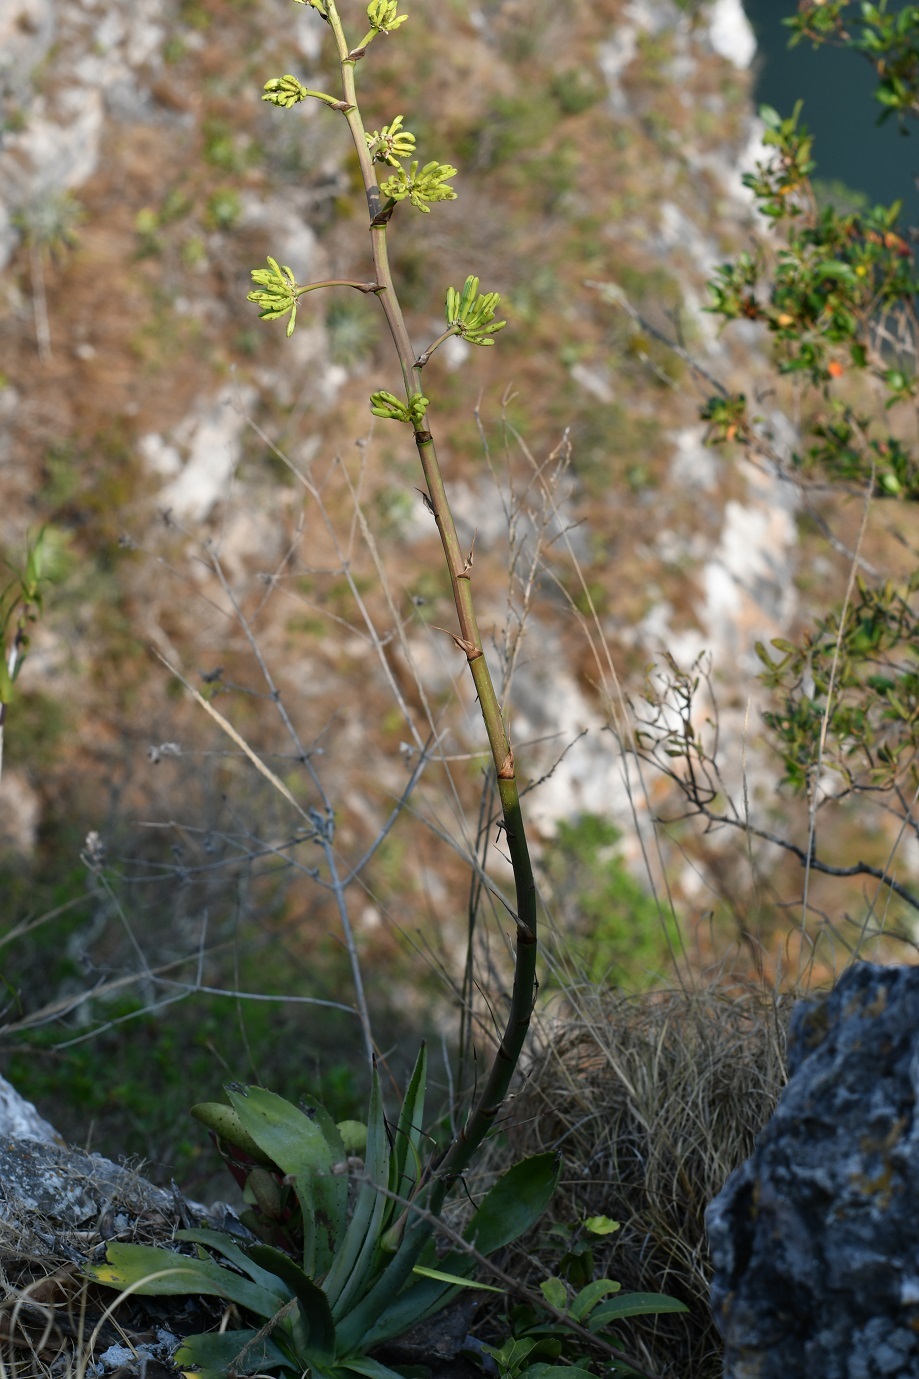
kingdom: Plantae
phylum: Tracheophyta
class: Liliopsida
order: Asparagales
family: Asparagaceae
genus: Agave
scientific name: Agave hiemiflora
